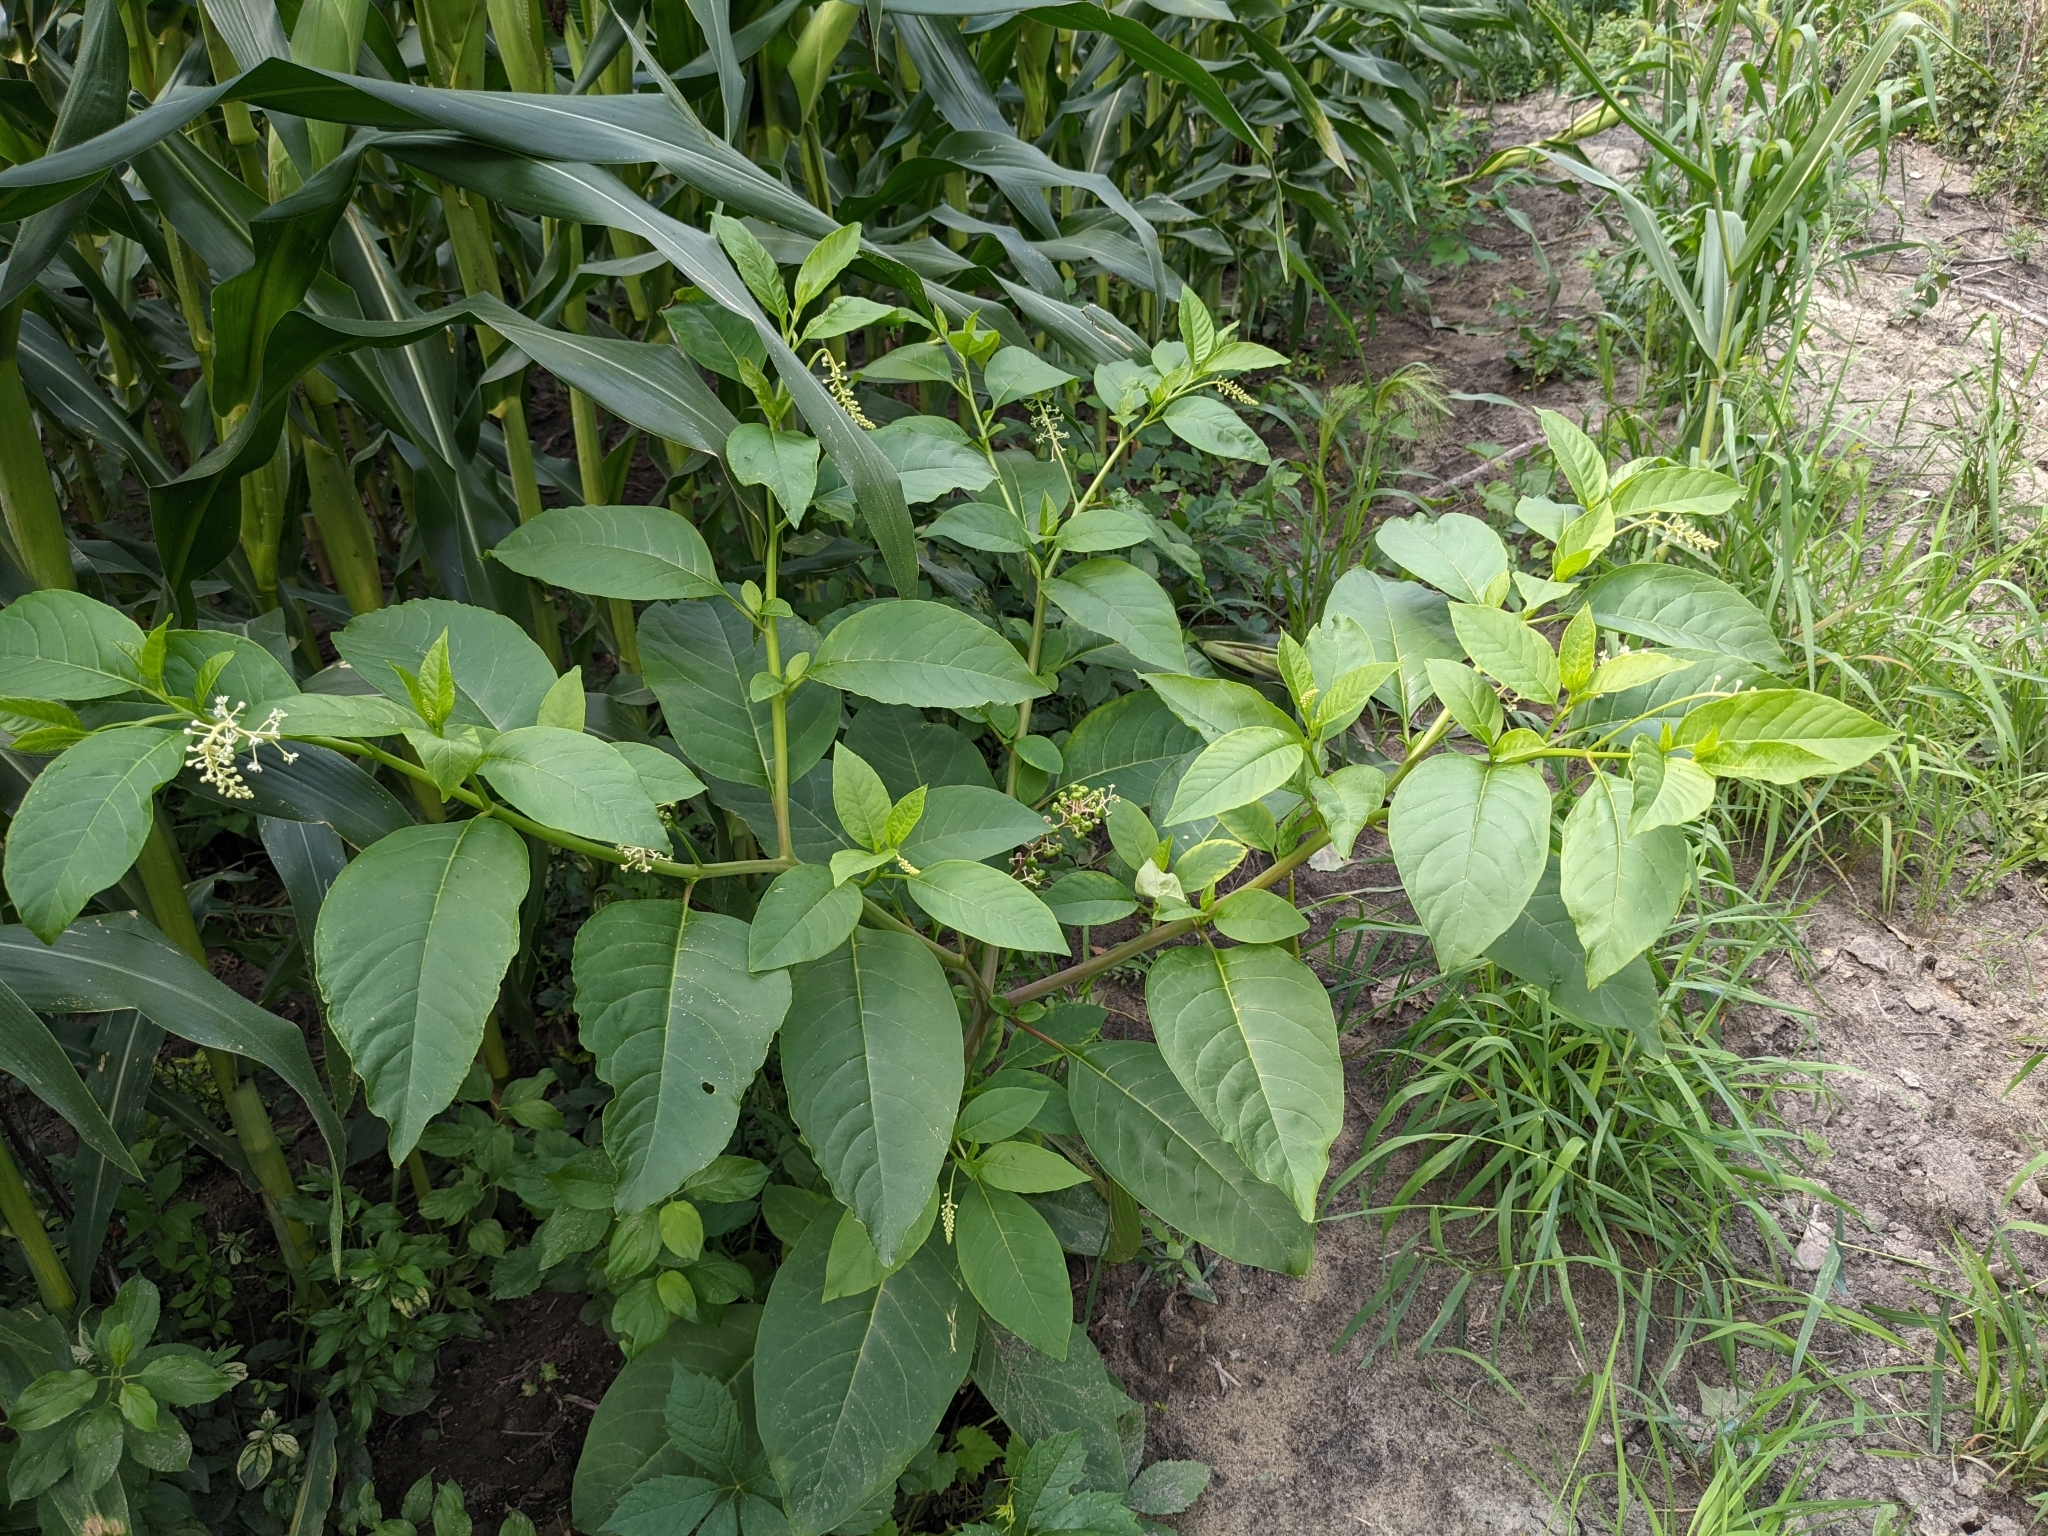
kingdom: Plantae
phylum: Tracheophyta
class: Magnoliopsida
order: Caryophyllales
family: Phytolaccaceae
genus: Phytolacca
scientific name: Phytolacca americana
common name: American pokeweed
